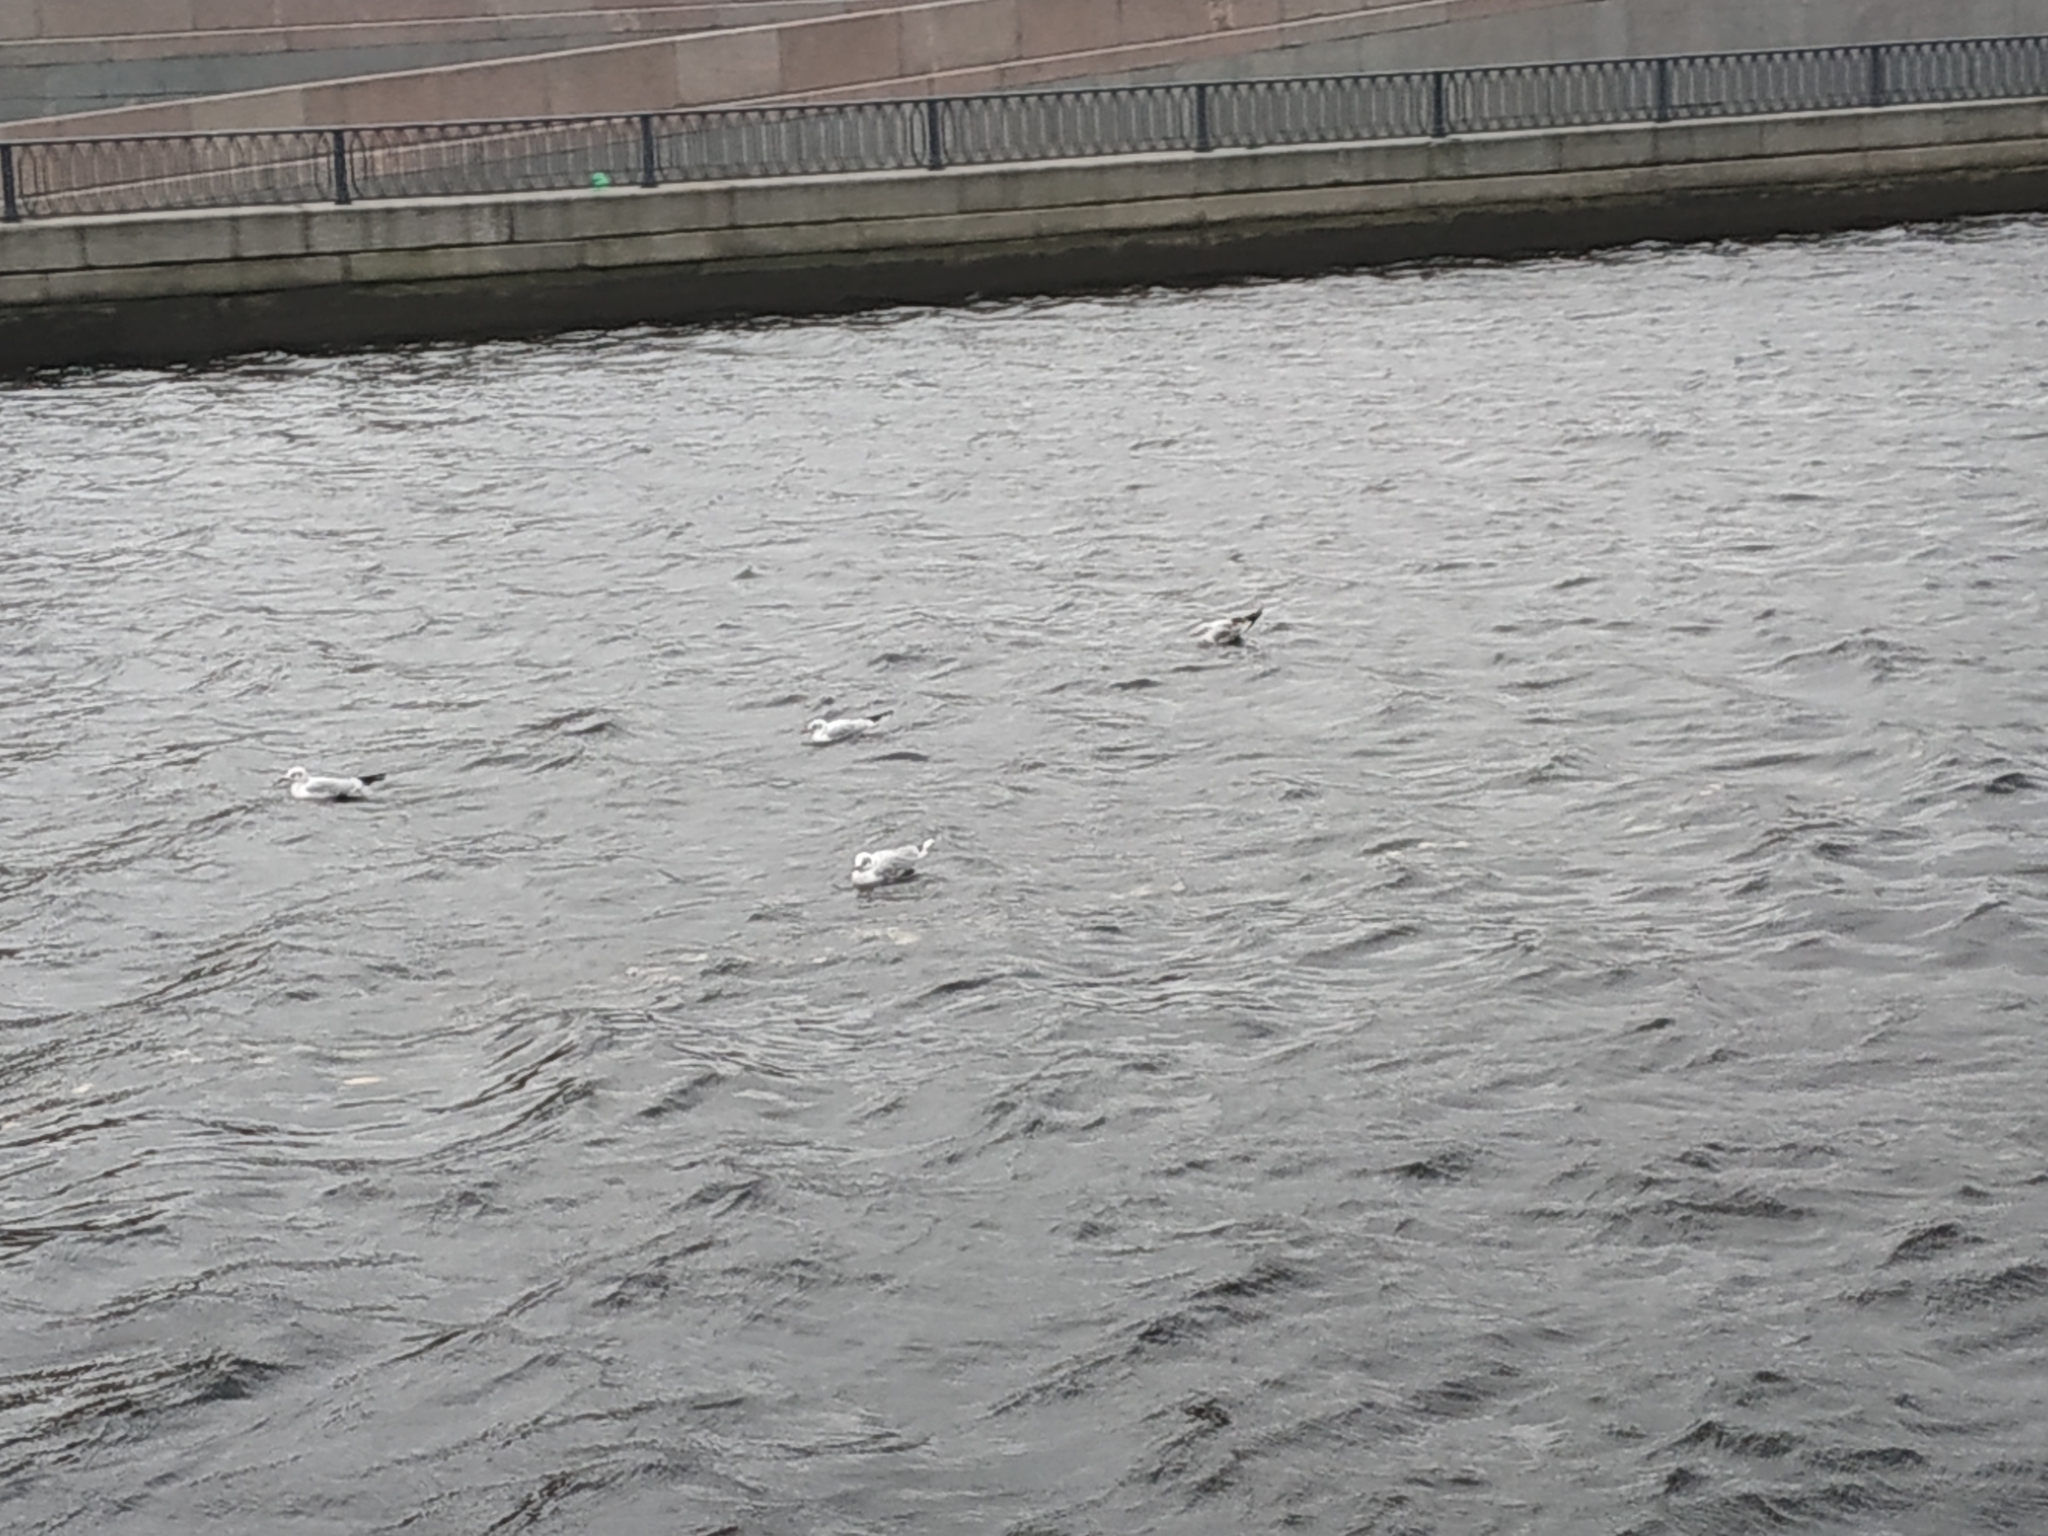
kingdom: Animalia
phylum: Chordata
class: Aves
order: Charadriiformes
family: Laridae
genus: Chroicocephalus
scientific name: Chroicocephalus ridibundus
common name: Black-headed gull
